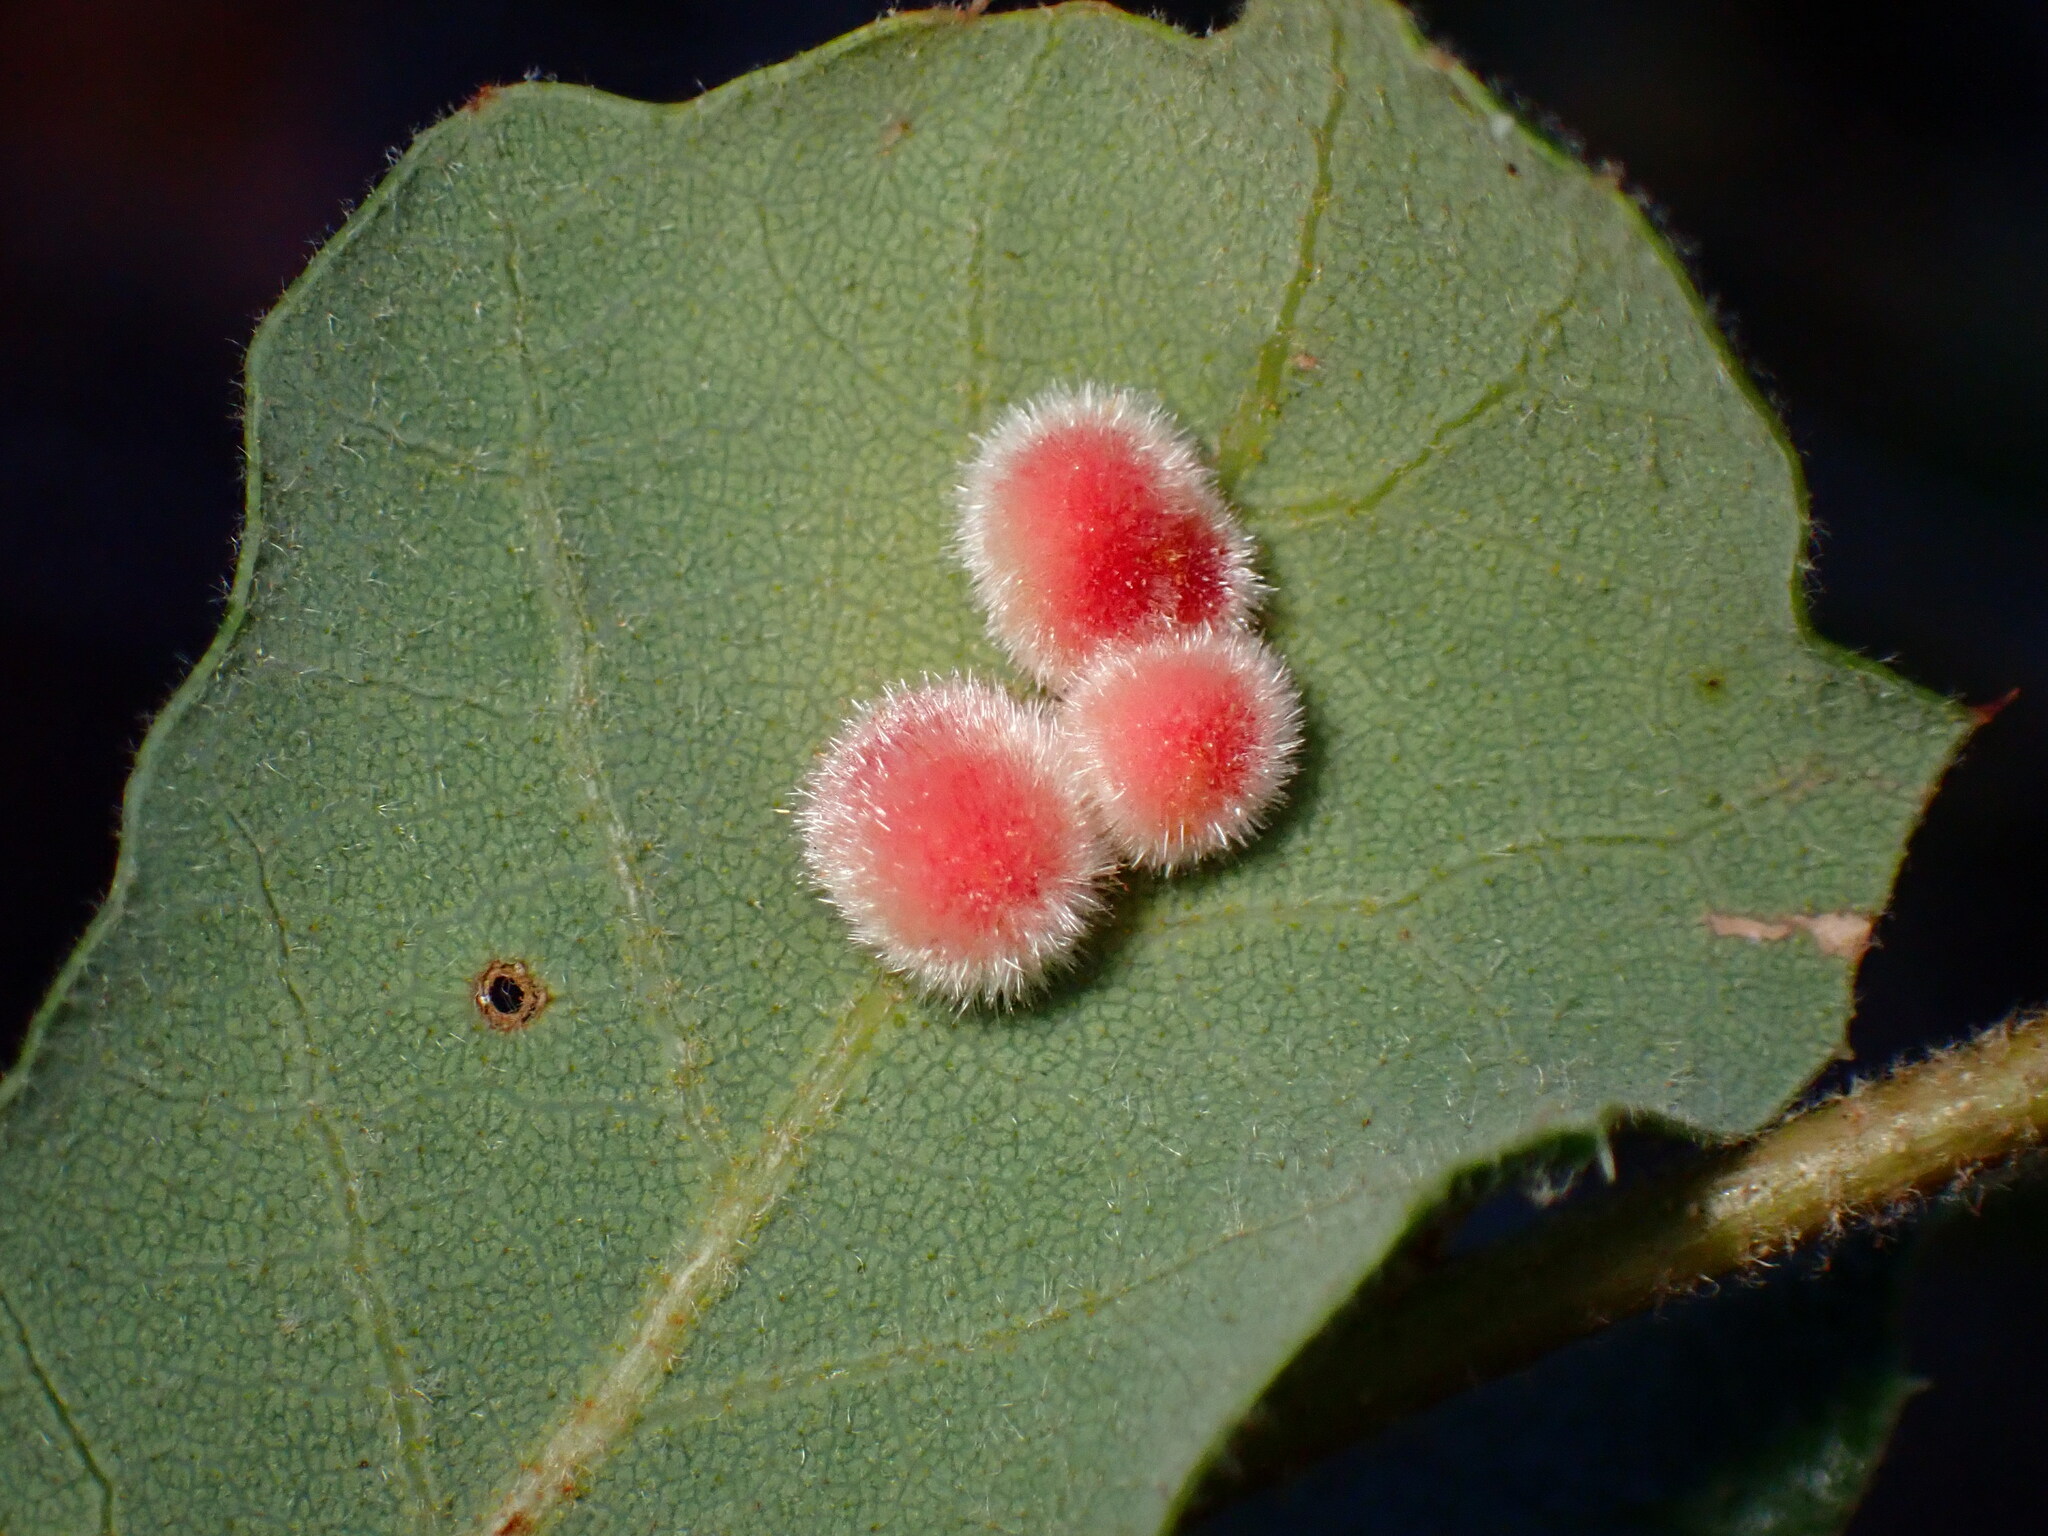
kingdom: Animalia
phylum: Arthropoda
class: Insecta
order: Hymenoptera
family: Cynipidae
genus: Atrusca
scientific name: Atrusca
